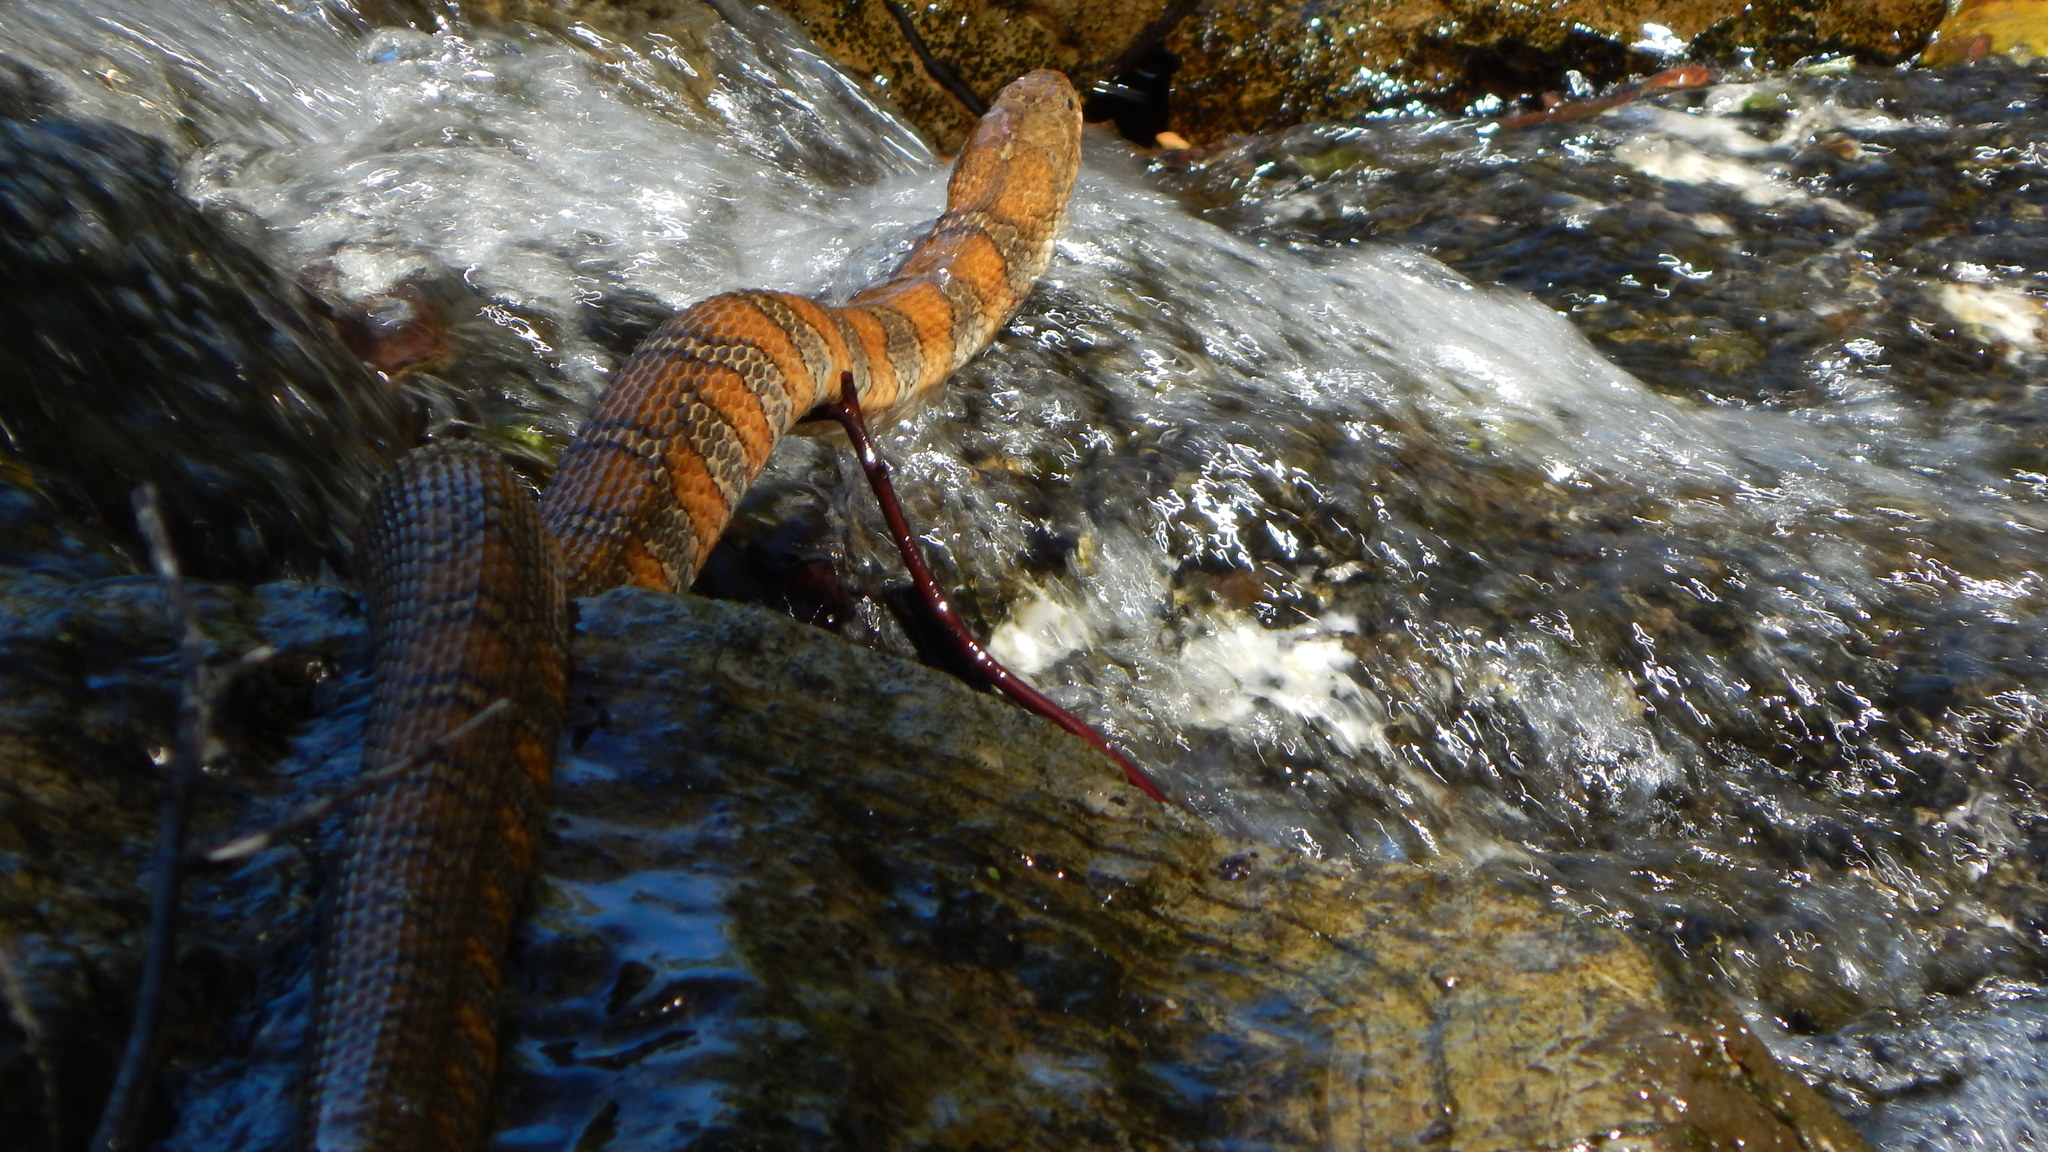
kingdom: Animalia
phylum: Chordata
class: Squamata
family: Colubridae
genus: Nerodia
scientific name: Nerodia sipedon
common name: Northern water snake
